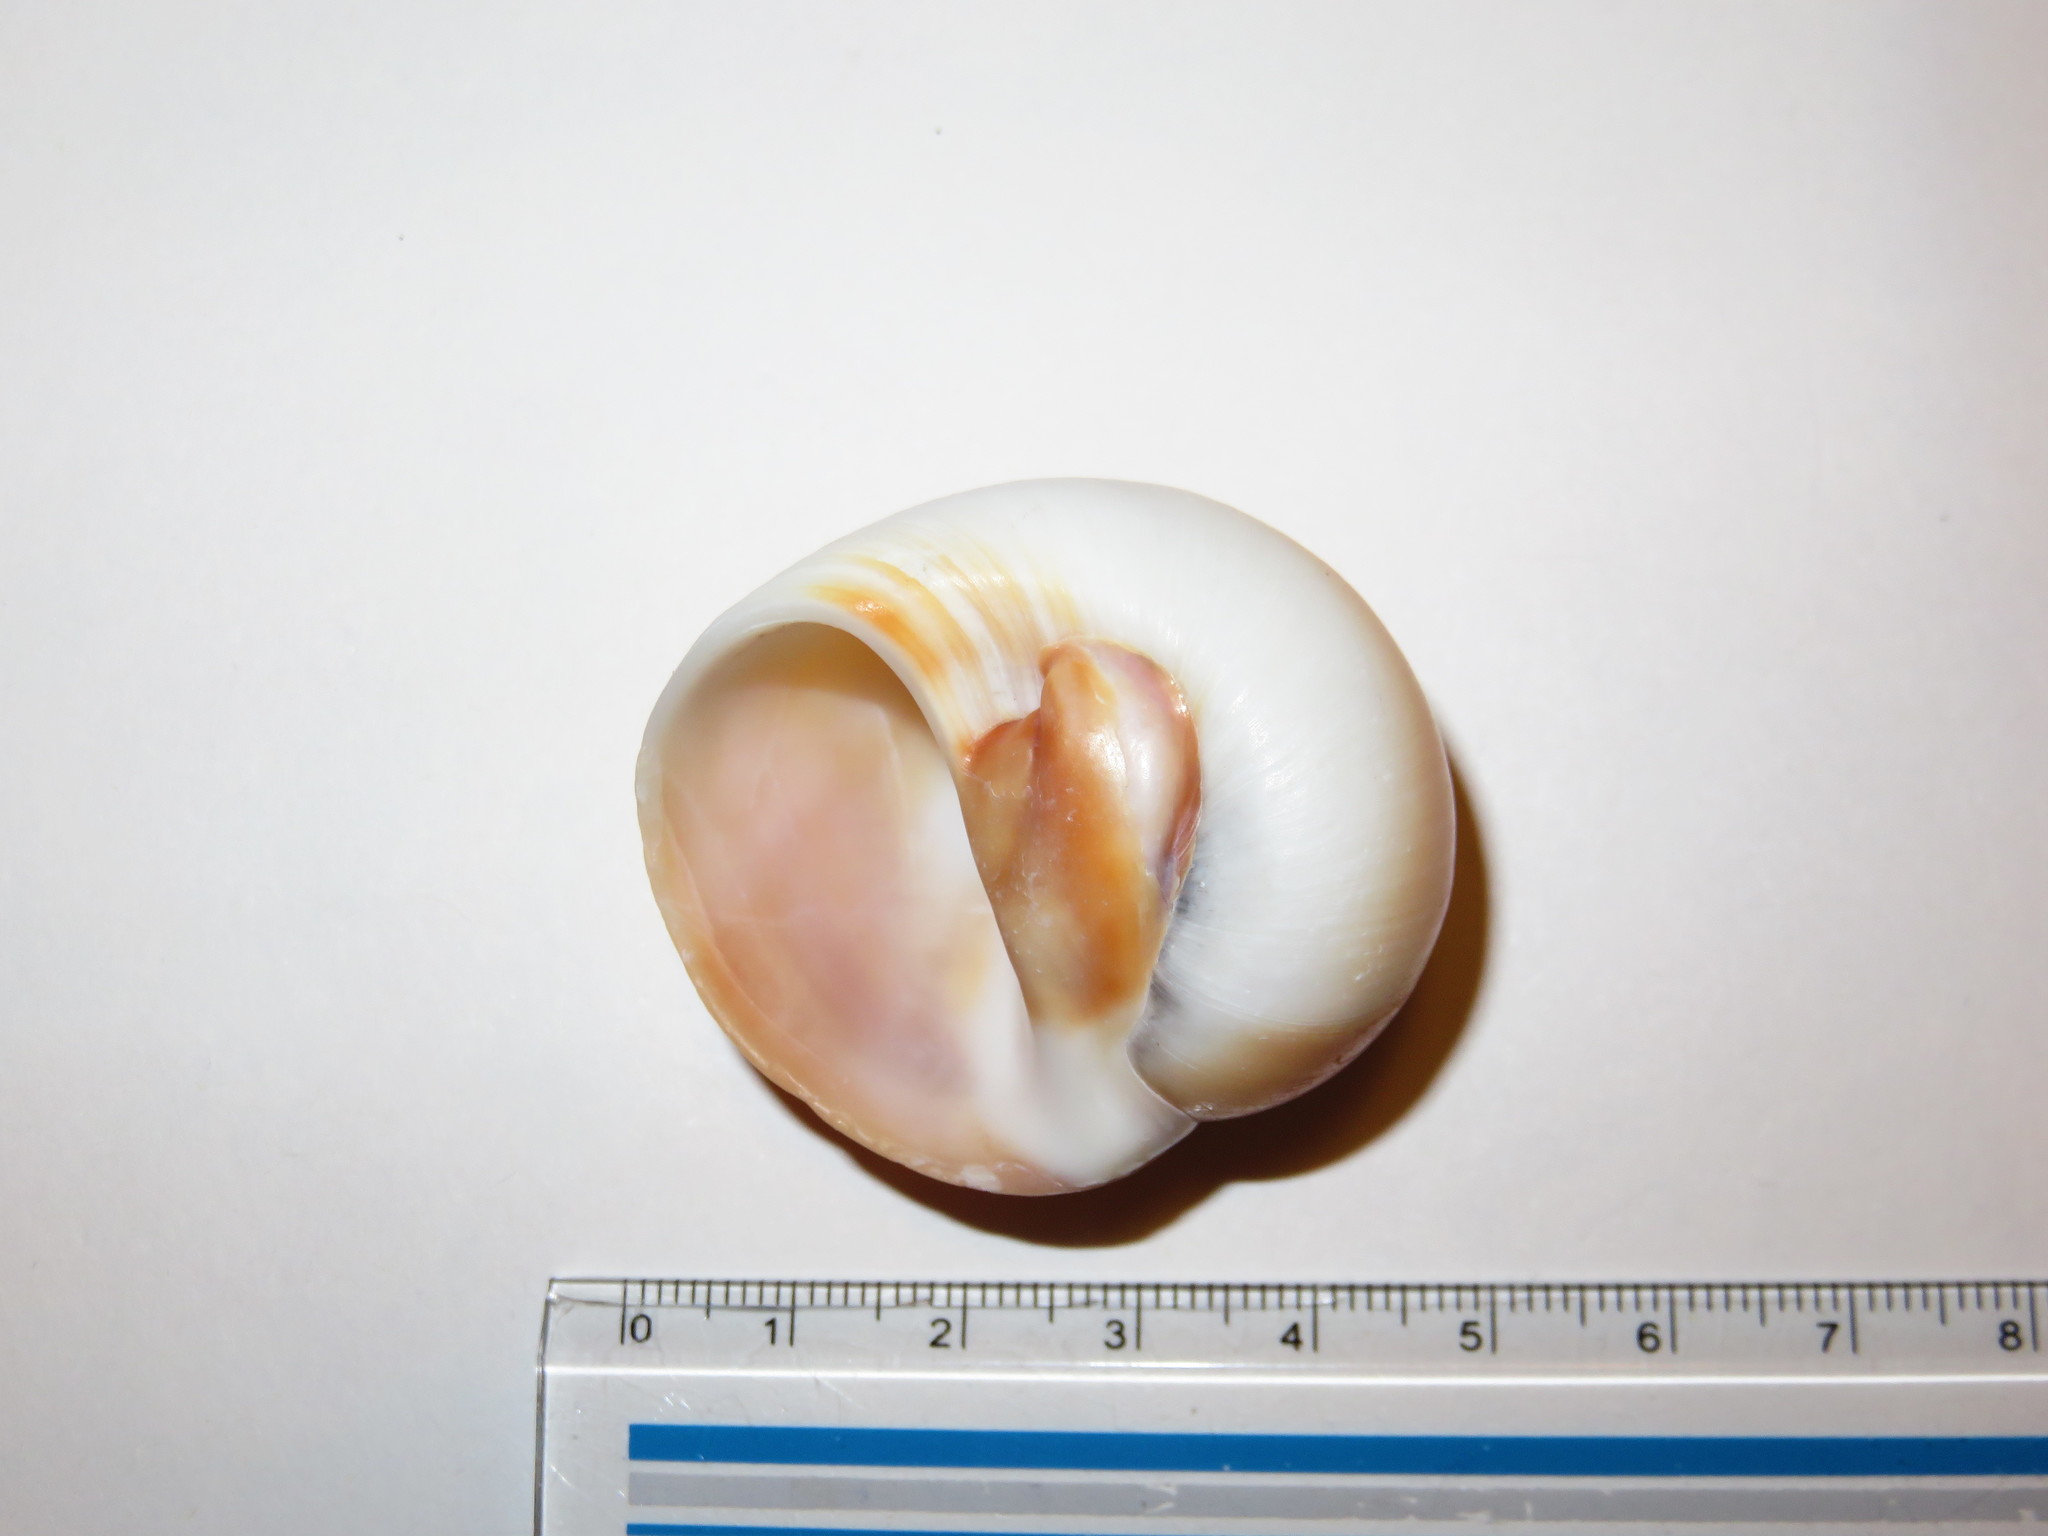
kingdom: Animalia
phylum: Mollusca
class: Gastropoda
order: Littorinimorpha
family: Naticidae
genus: Neverita
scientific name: Neverita didyma
